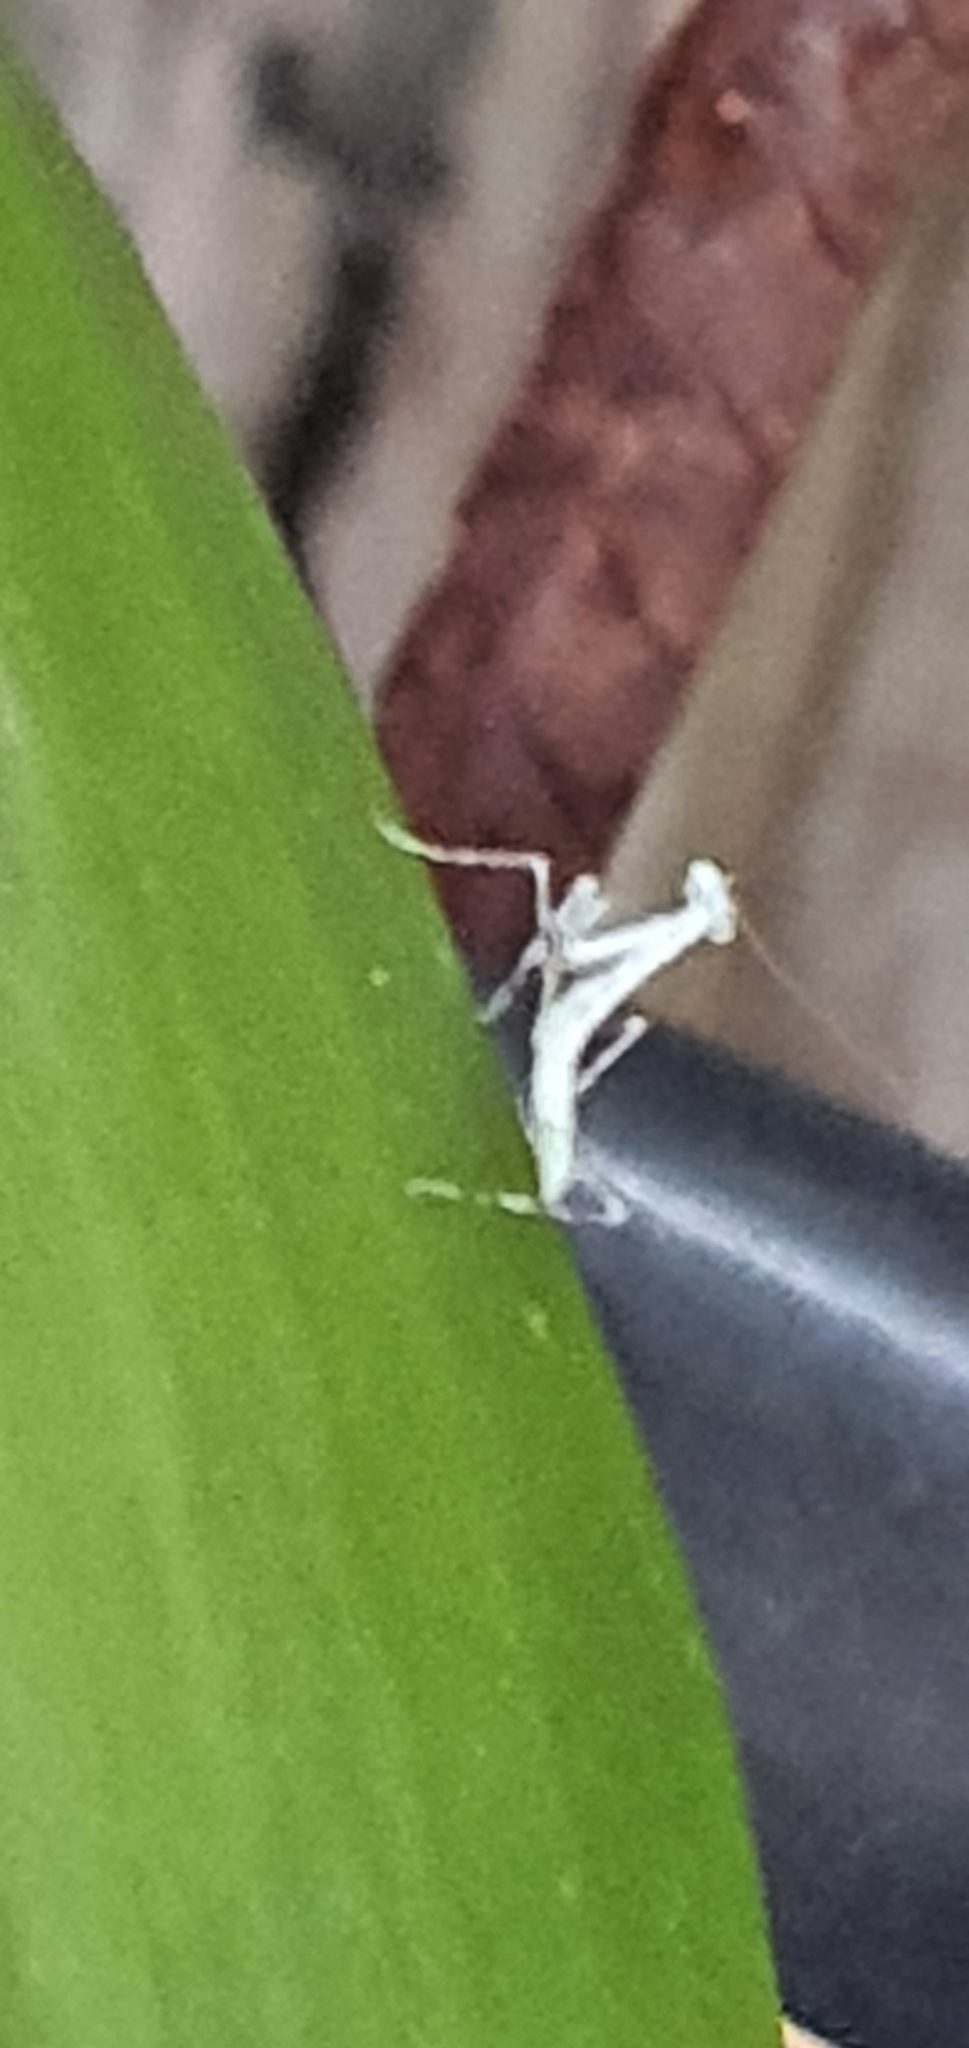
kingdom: Animalia
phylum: Arthropoda
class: Insecta
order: Mantodea
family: Nanomantidae
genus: Kongobatha
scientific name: Kongobatha diademata
